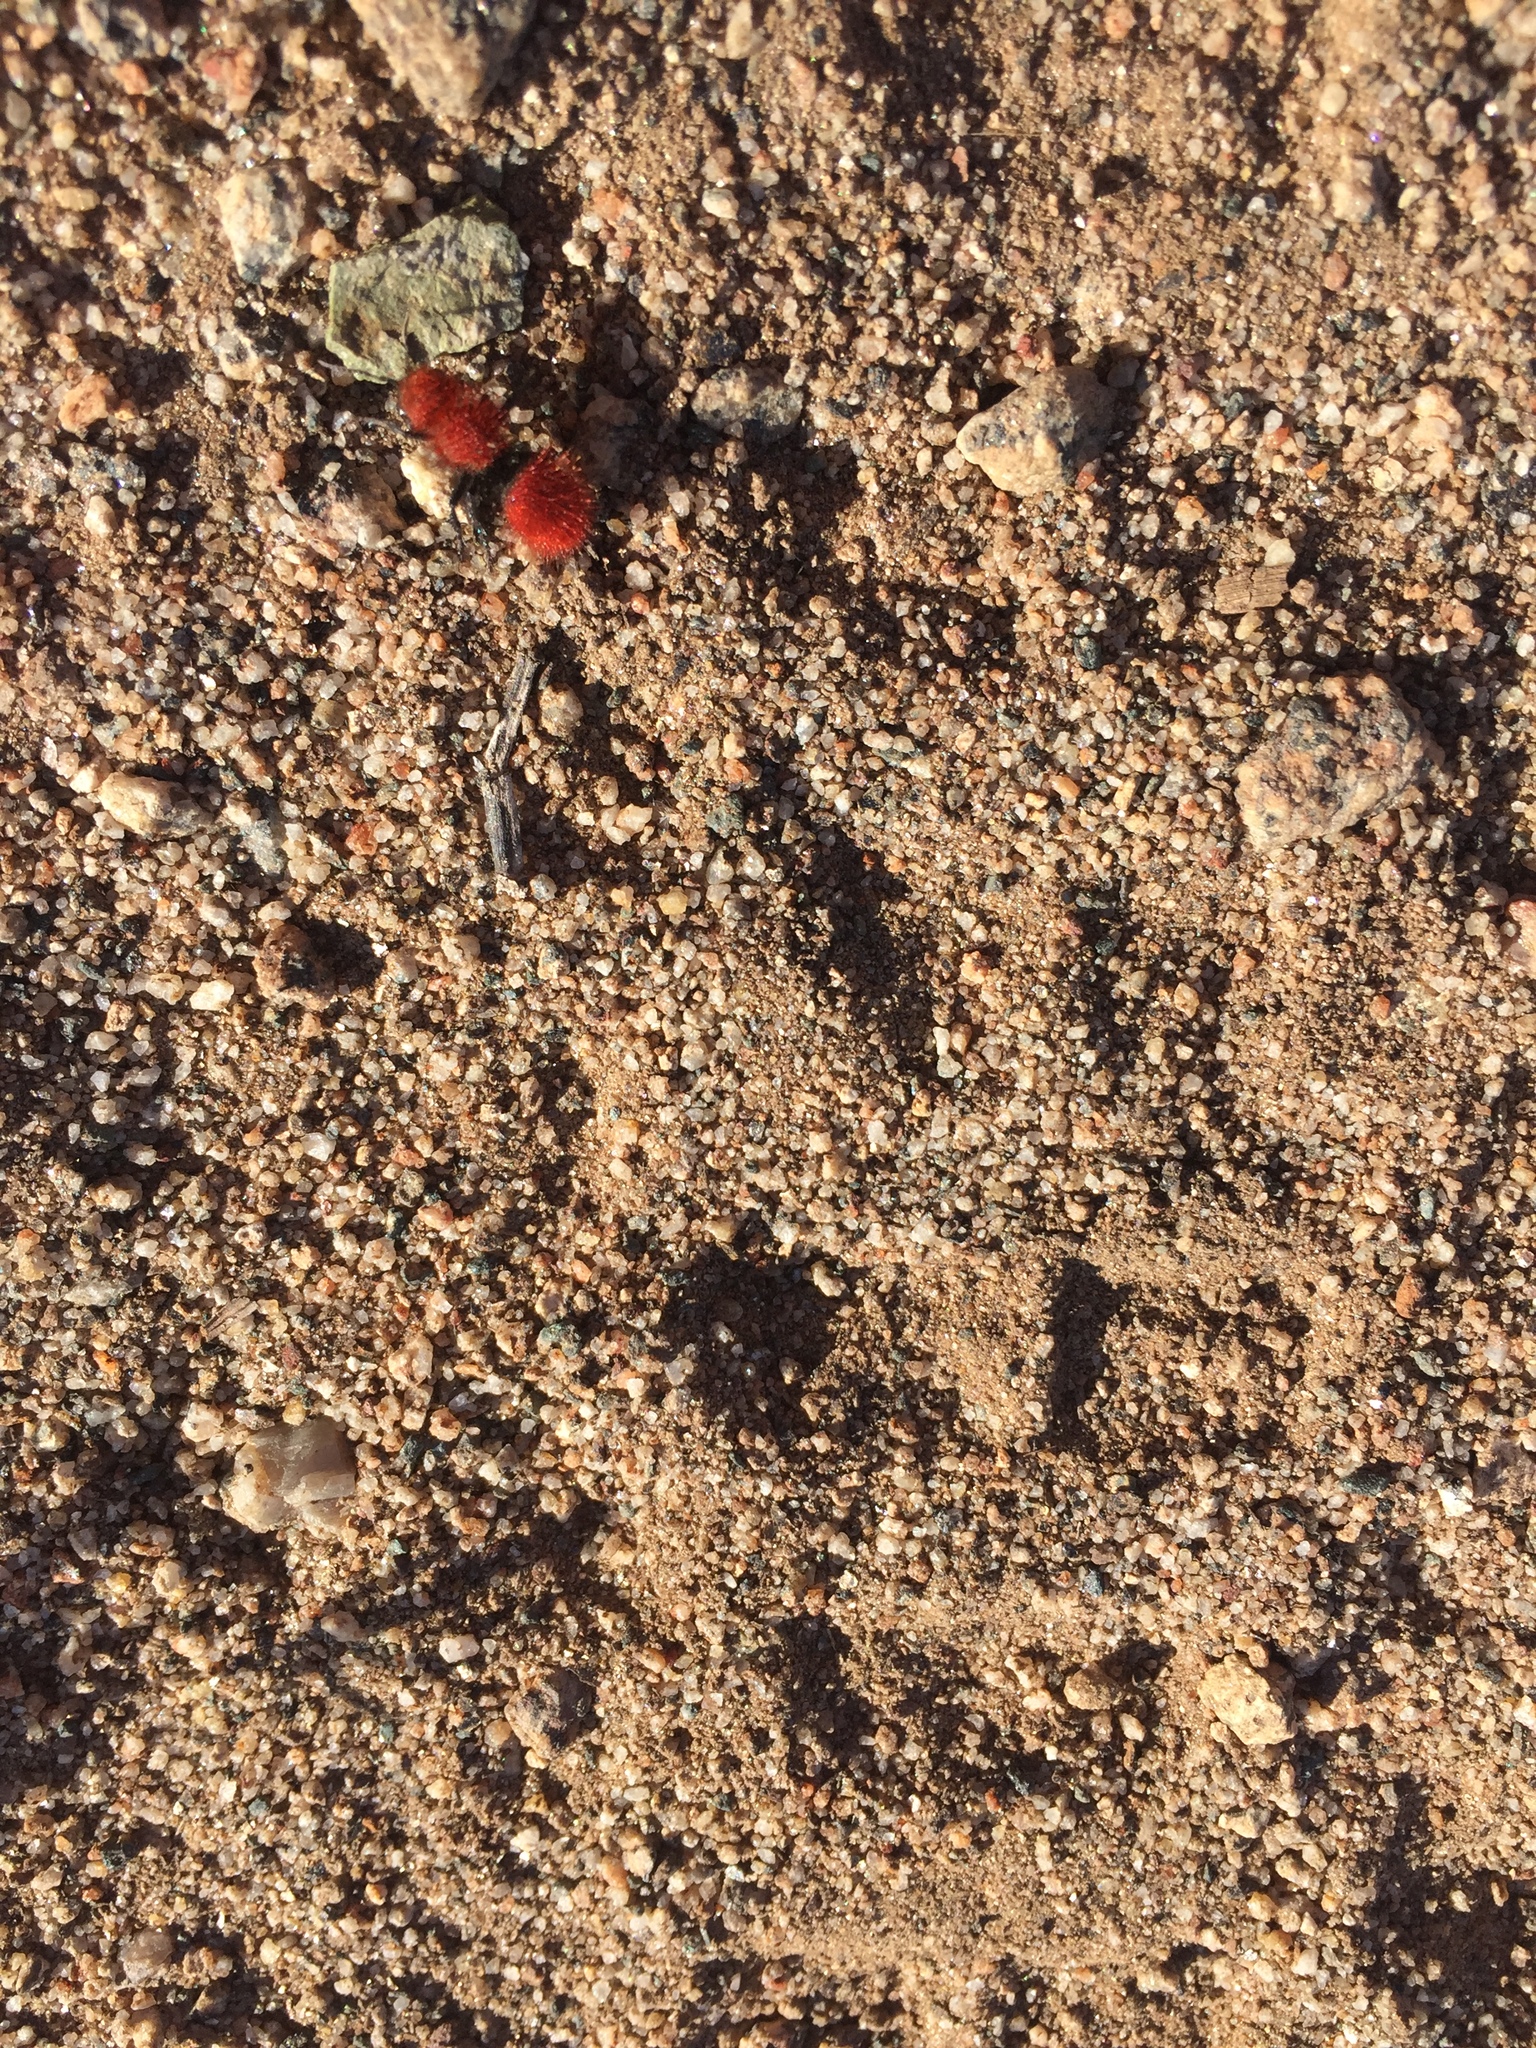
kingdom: Animalia
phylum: Arthropoda
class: Insecta
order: Hymenoptera
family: Mutillidae
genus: Dasymutilla
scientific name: Dasymutilla
